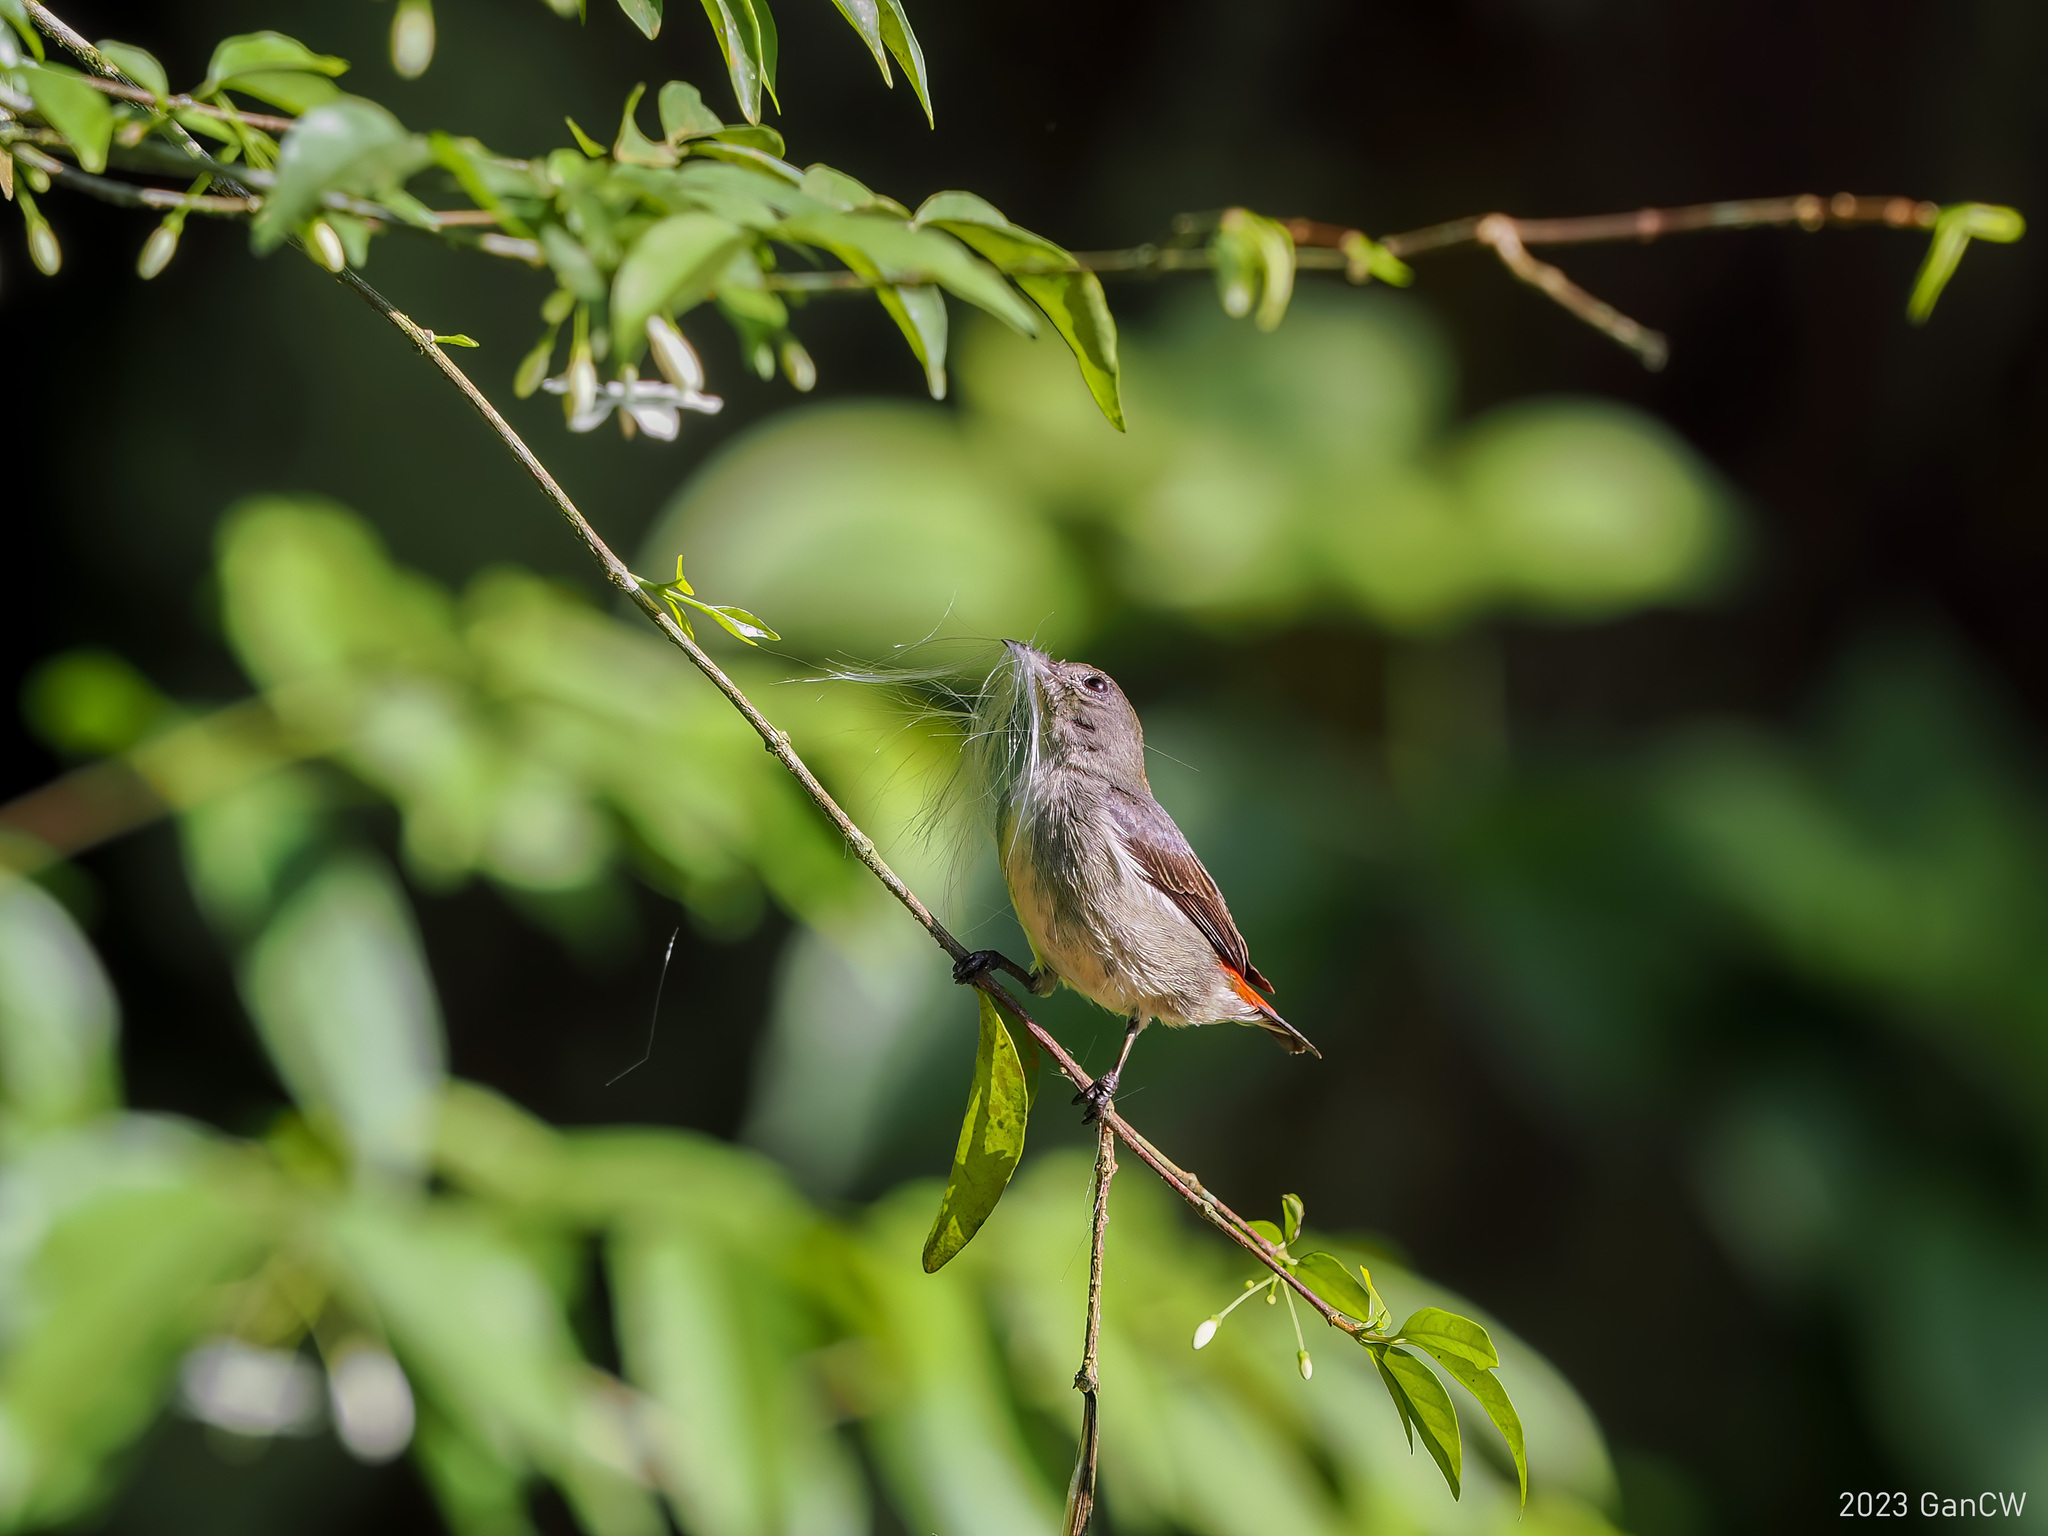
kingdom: Animalia
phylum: Chordata
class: Aves
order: Passeriformes
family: Dicaeidae
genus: Dicaeum
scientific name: Dicaeum cruentatum
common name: Scarlet-backed flowerpecker
